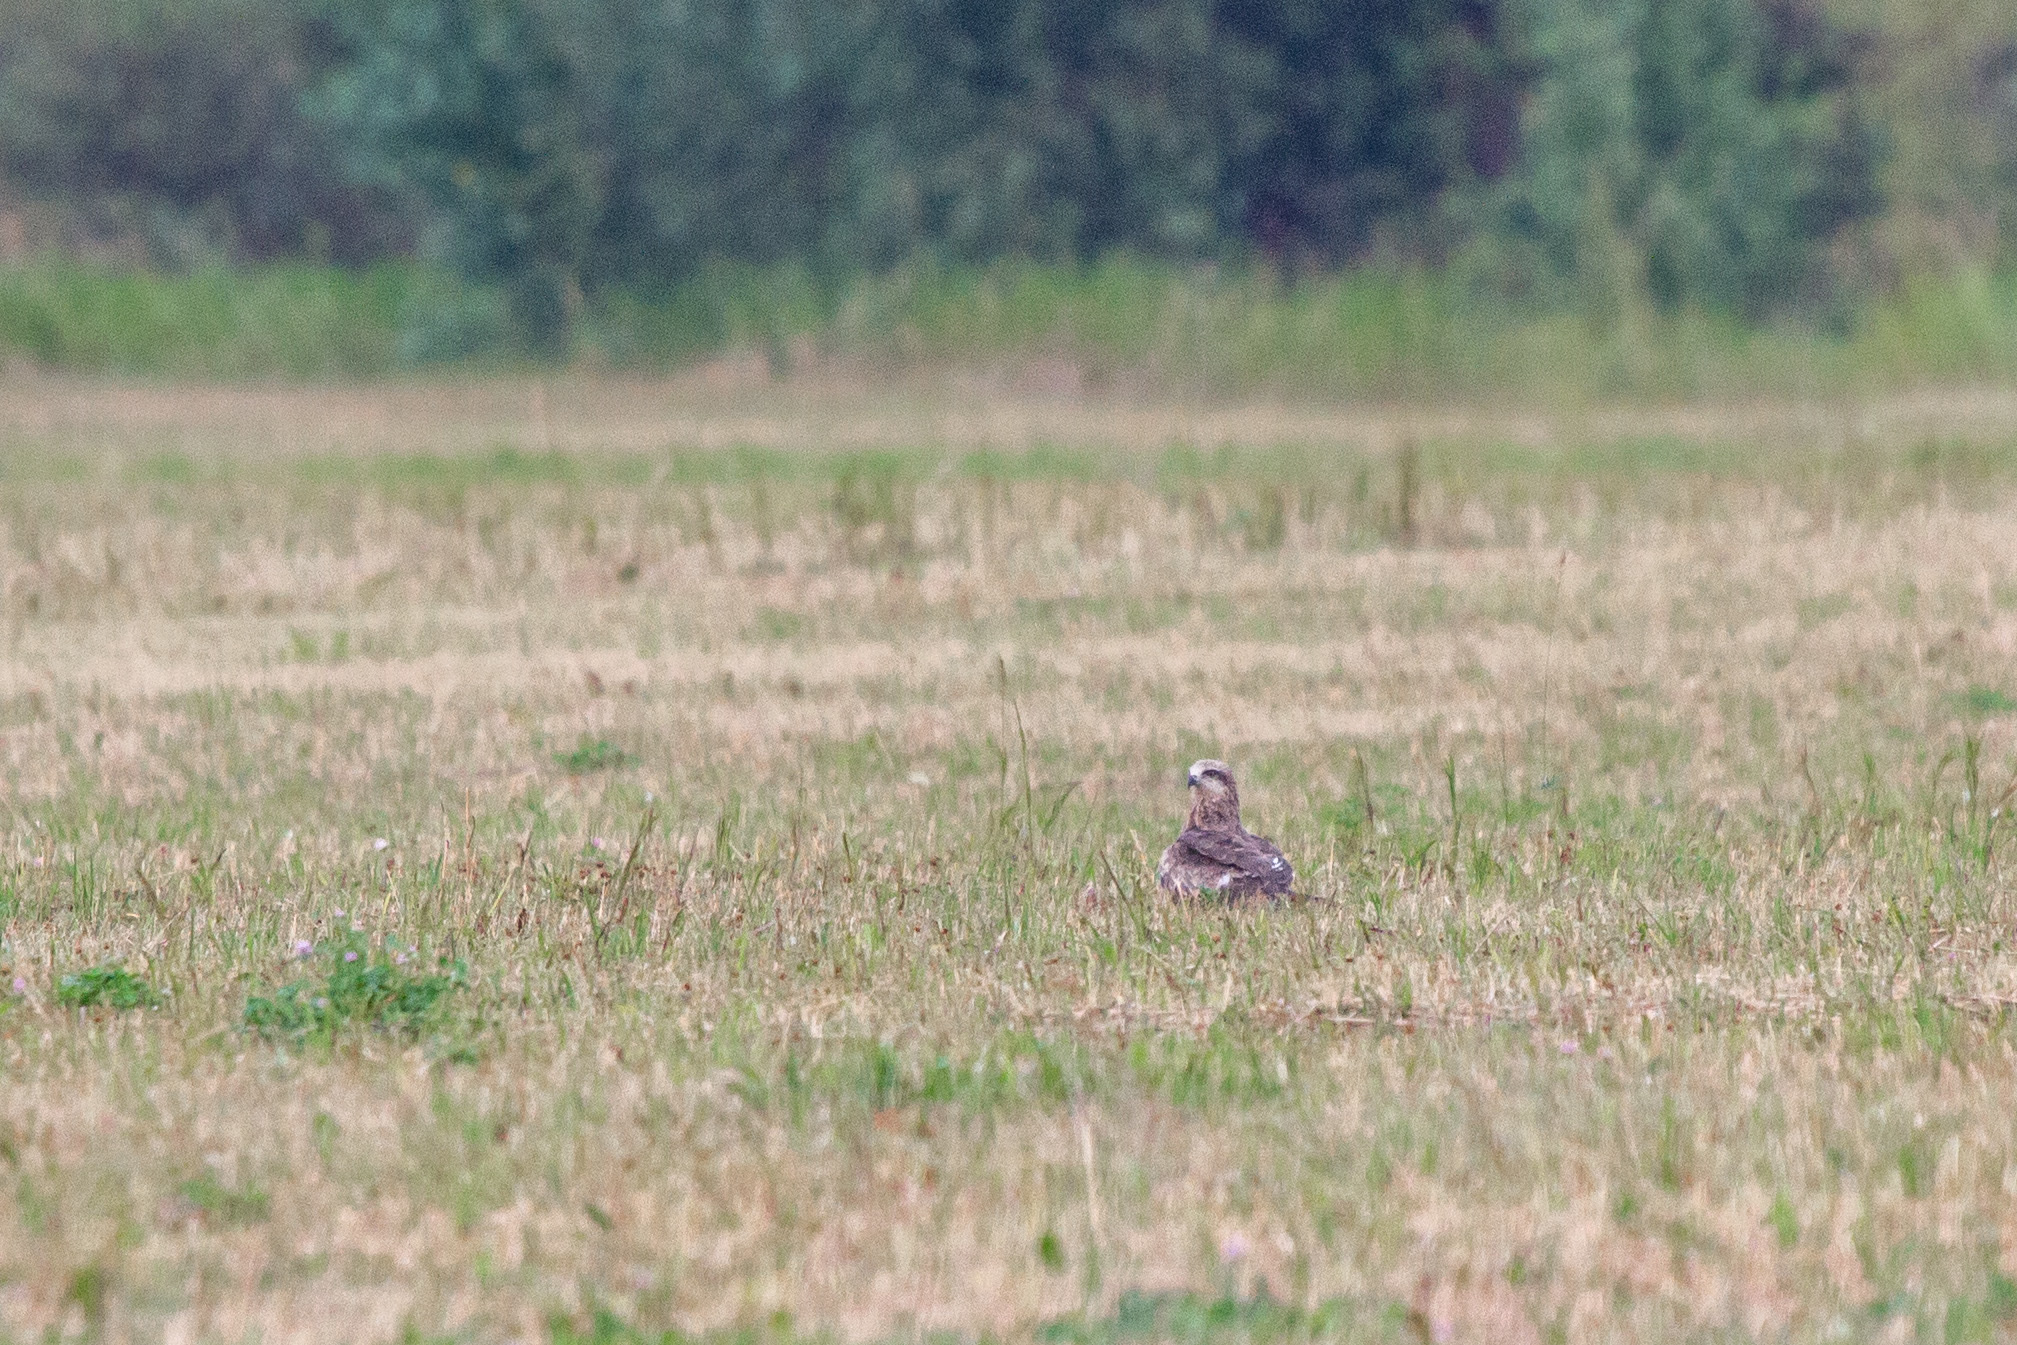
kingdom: Animalia
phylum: Chordata
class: Aves
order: Accipitriformes
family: Accipitridae
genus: Milvus
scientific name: Milvus migrans
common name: Black kite
